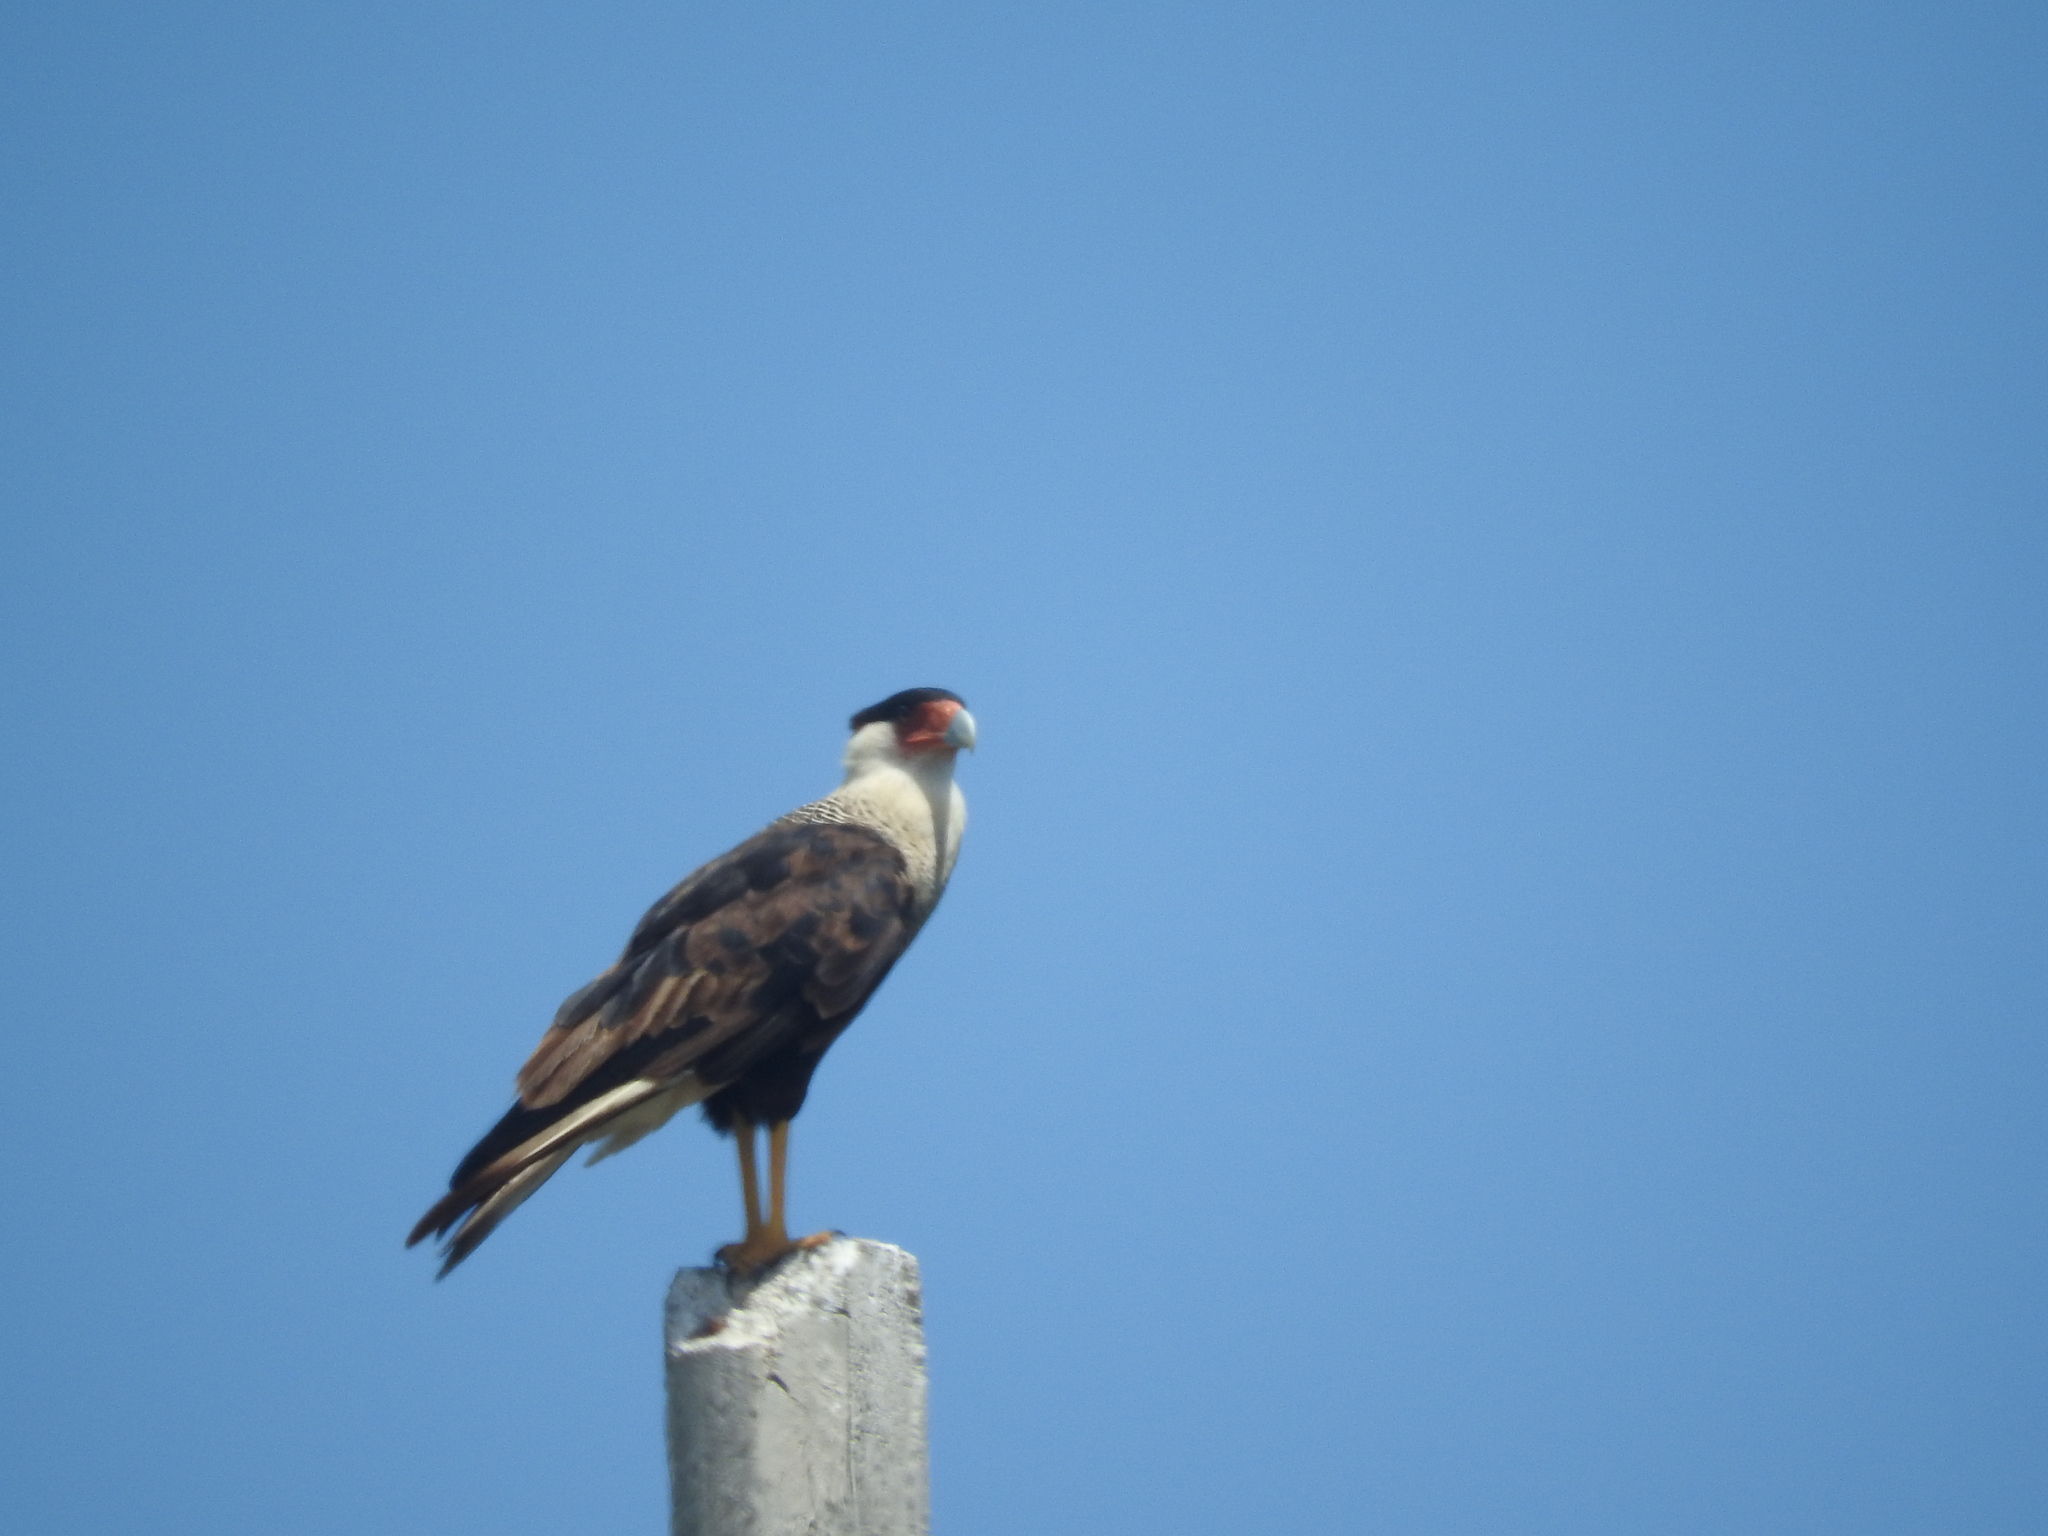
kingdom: Animalia
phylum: Chordata
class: Aves
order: Falconiformes
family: Falconidae
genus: Caracara
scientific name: Caracara plancus
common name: Southern caracara
